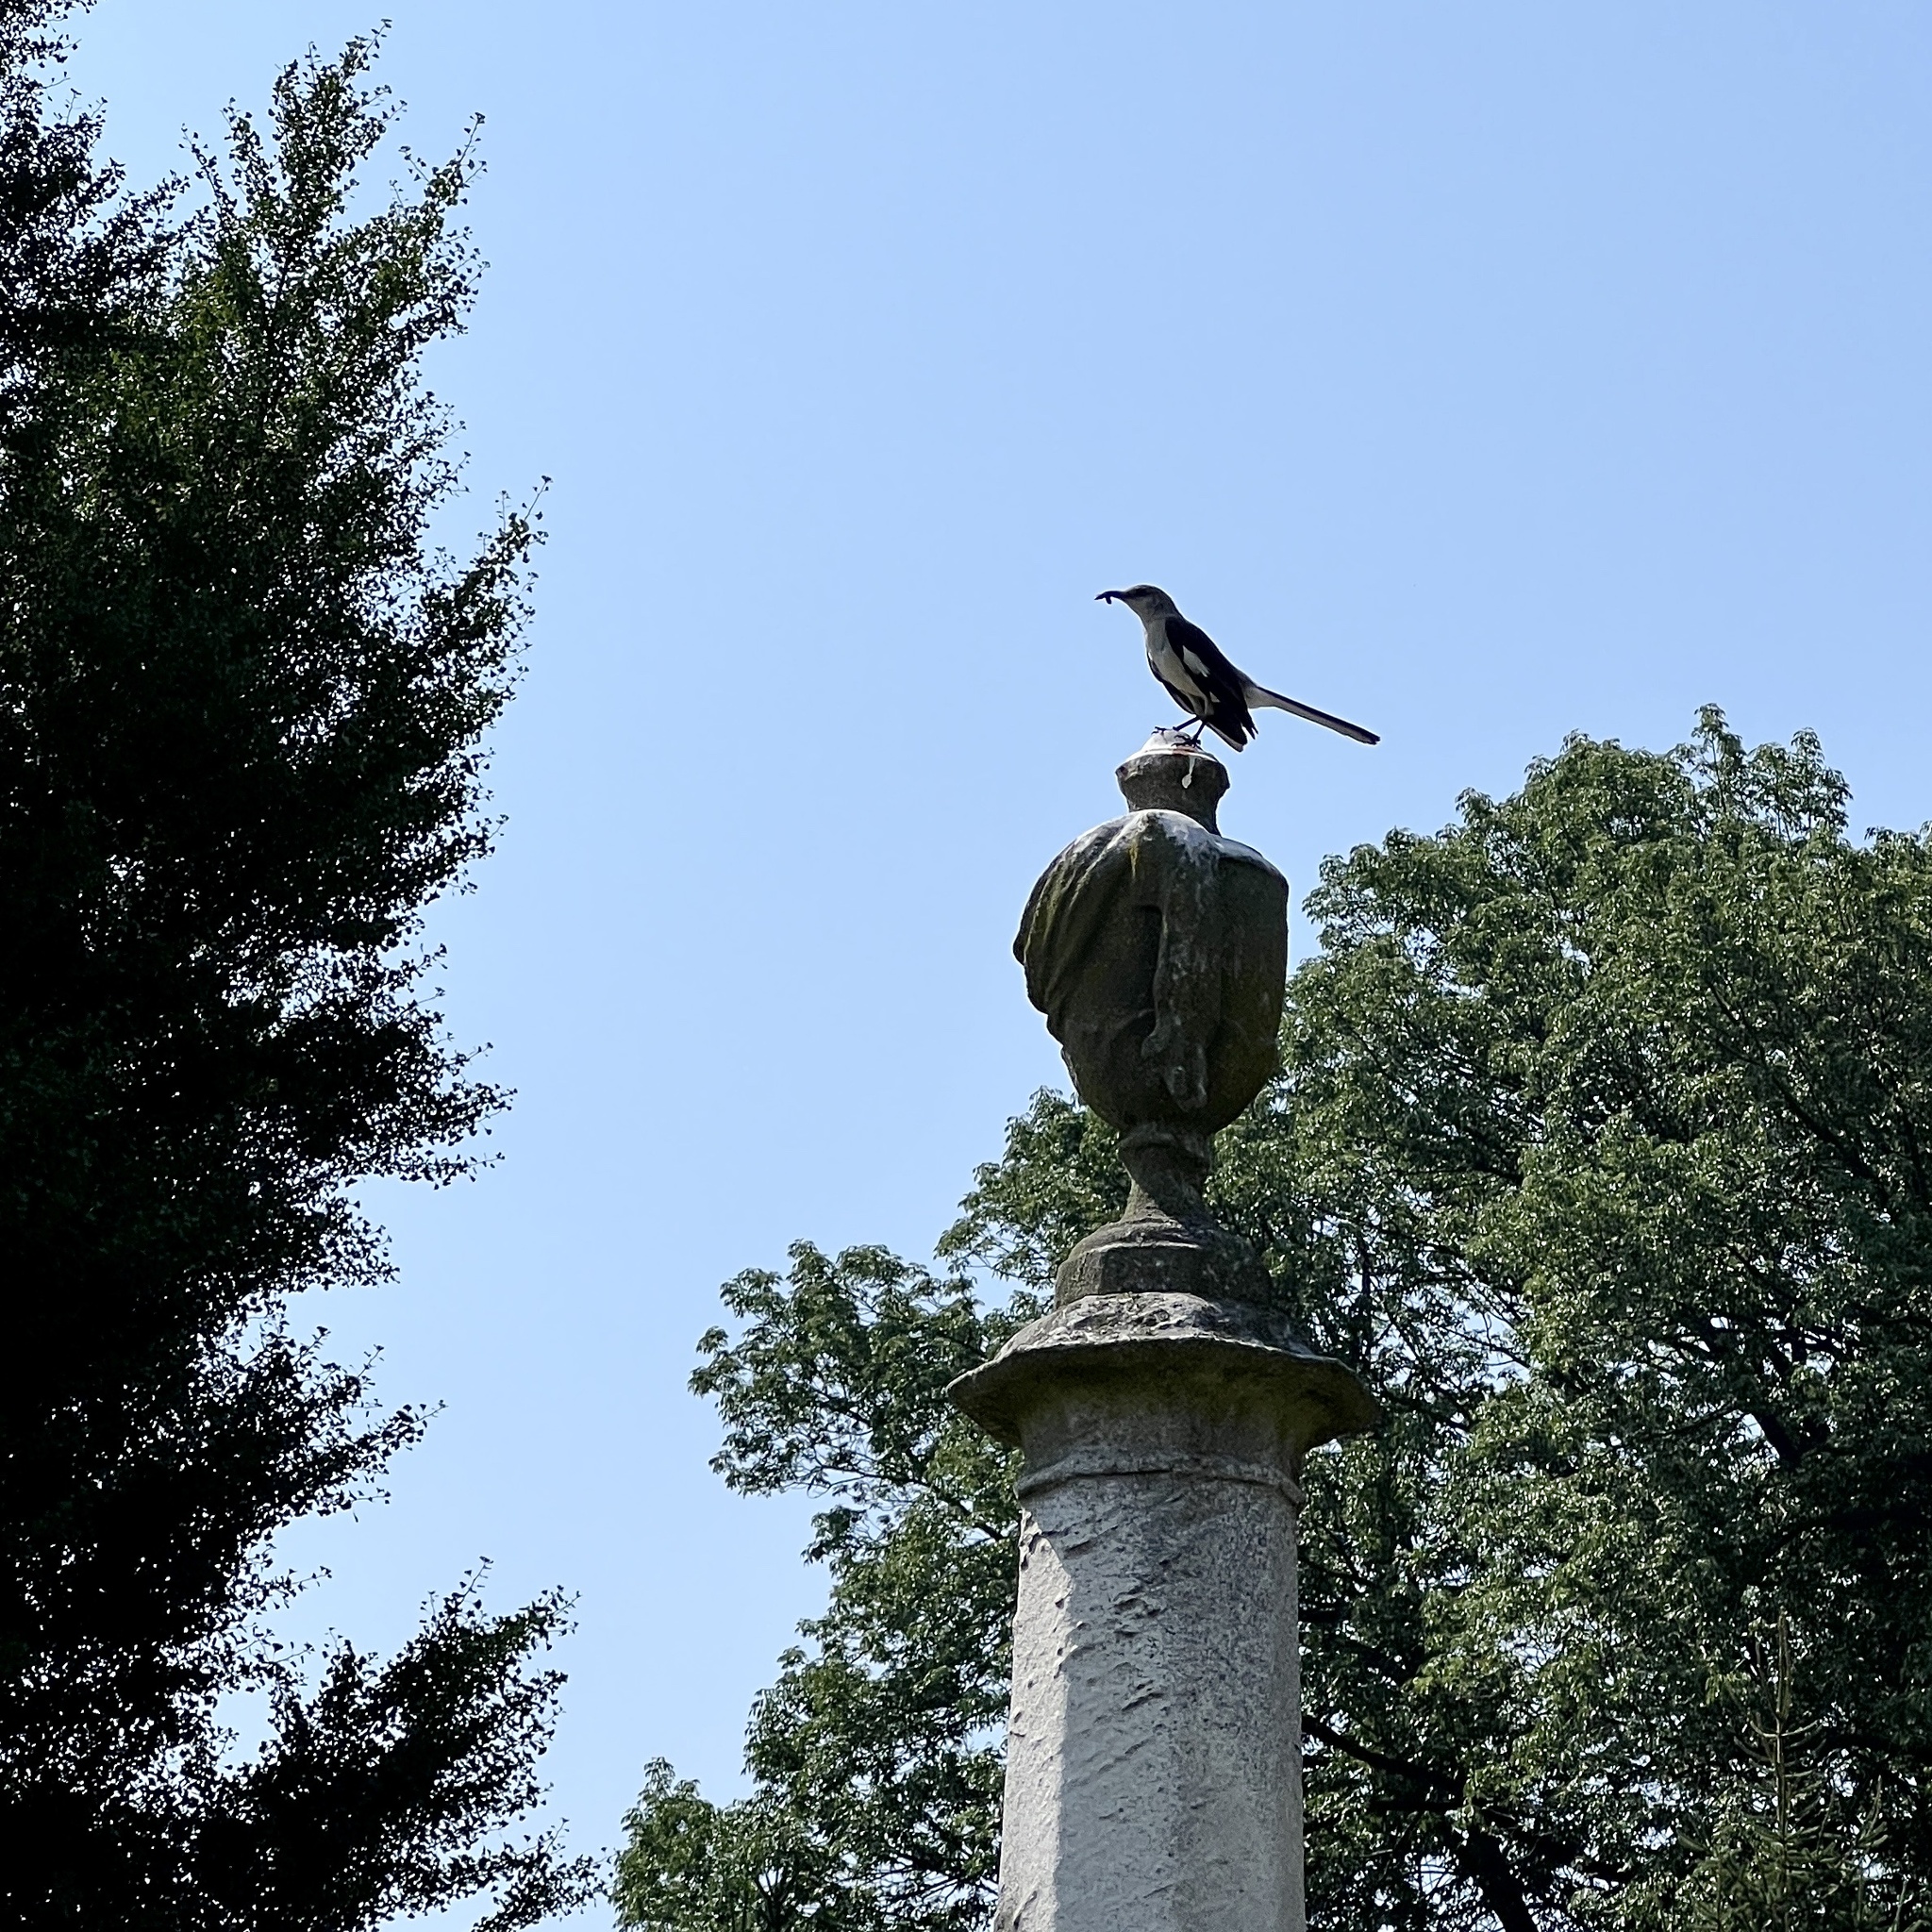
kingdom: Animalia
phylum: Chordata
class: Aves
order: Passeriformes
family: Mimidae
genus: Mimus
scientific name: Mimus polyglottos
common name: Northern mockingbird
